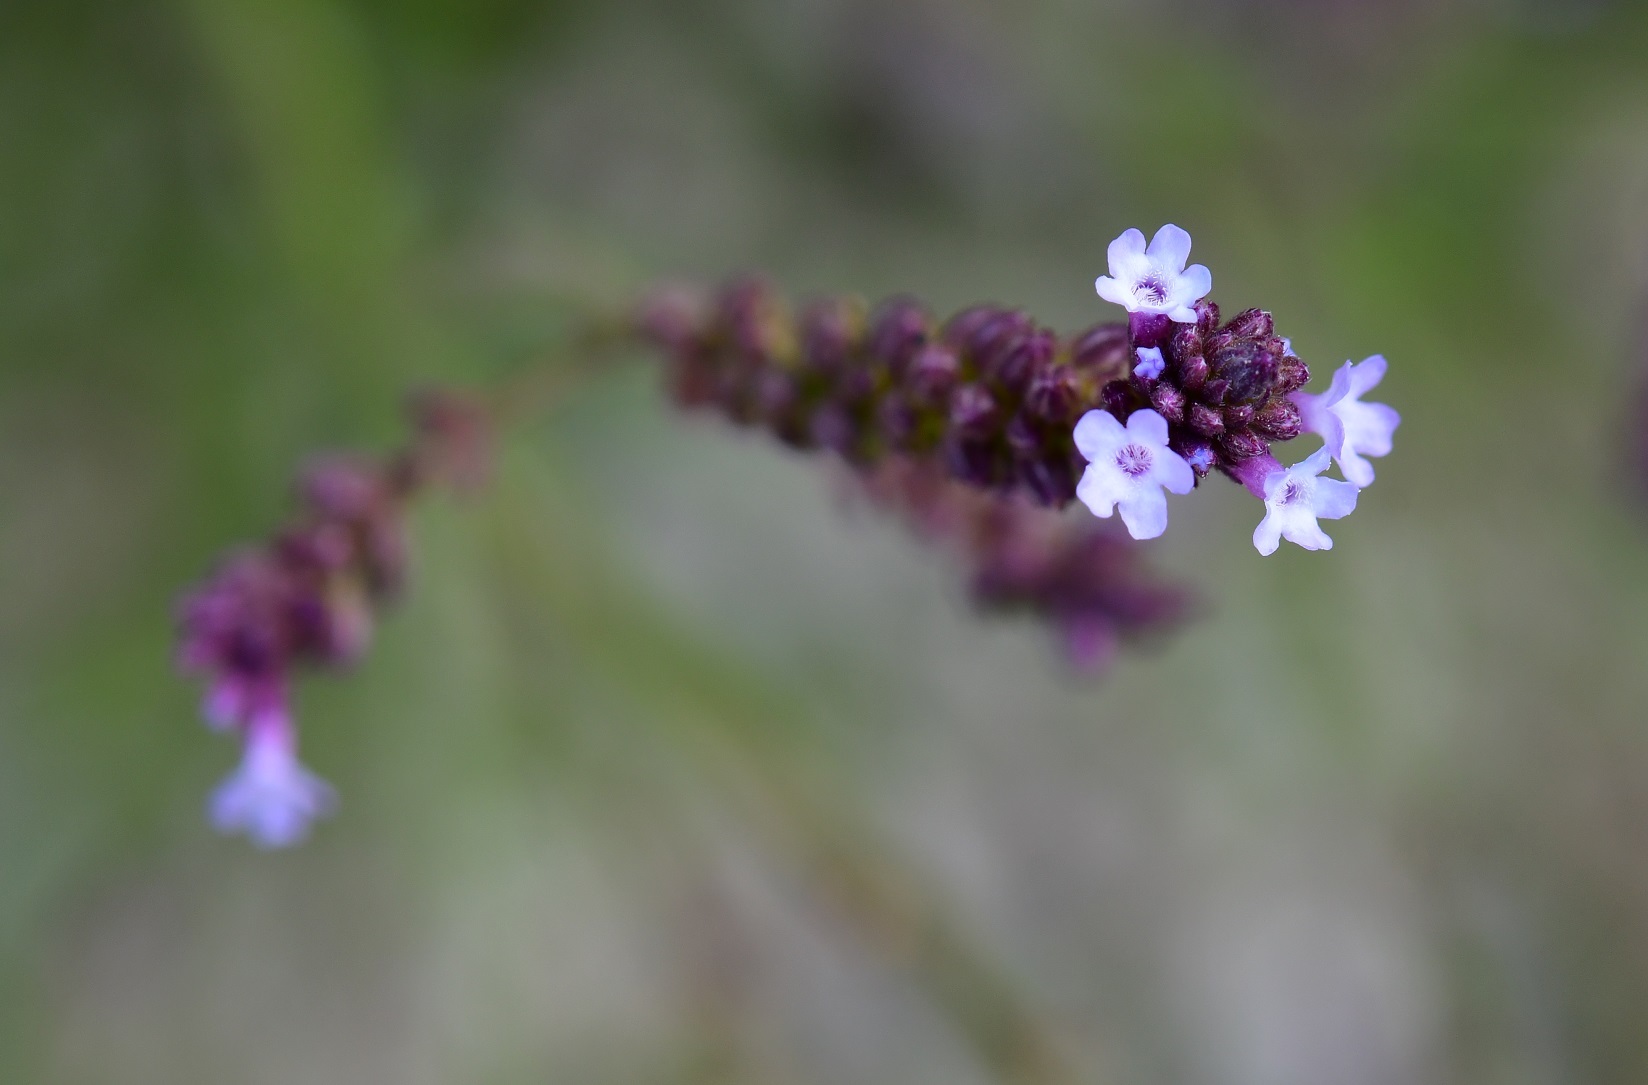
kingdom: Plantae
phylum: Tracheophyta
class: Magnoliopsida
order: Lamiales
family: Verbenaceae
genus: Verbena
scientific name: Verbena carolina
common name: Carolina vervain
